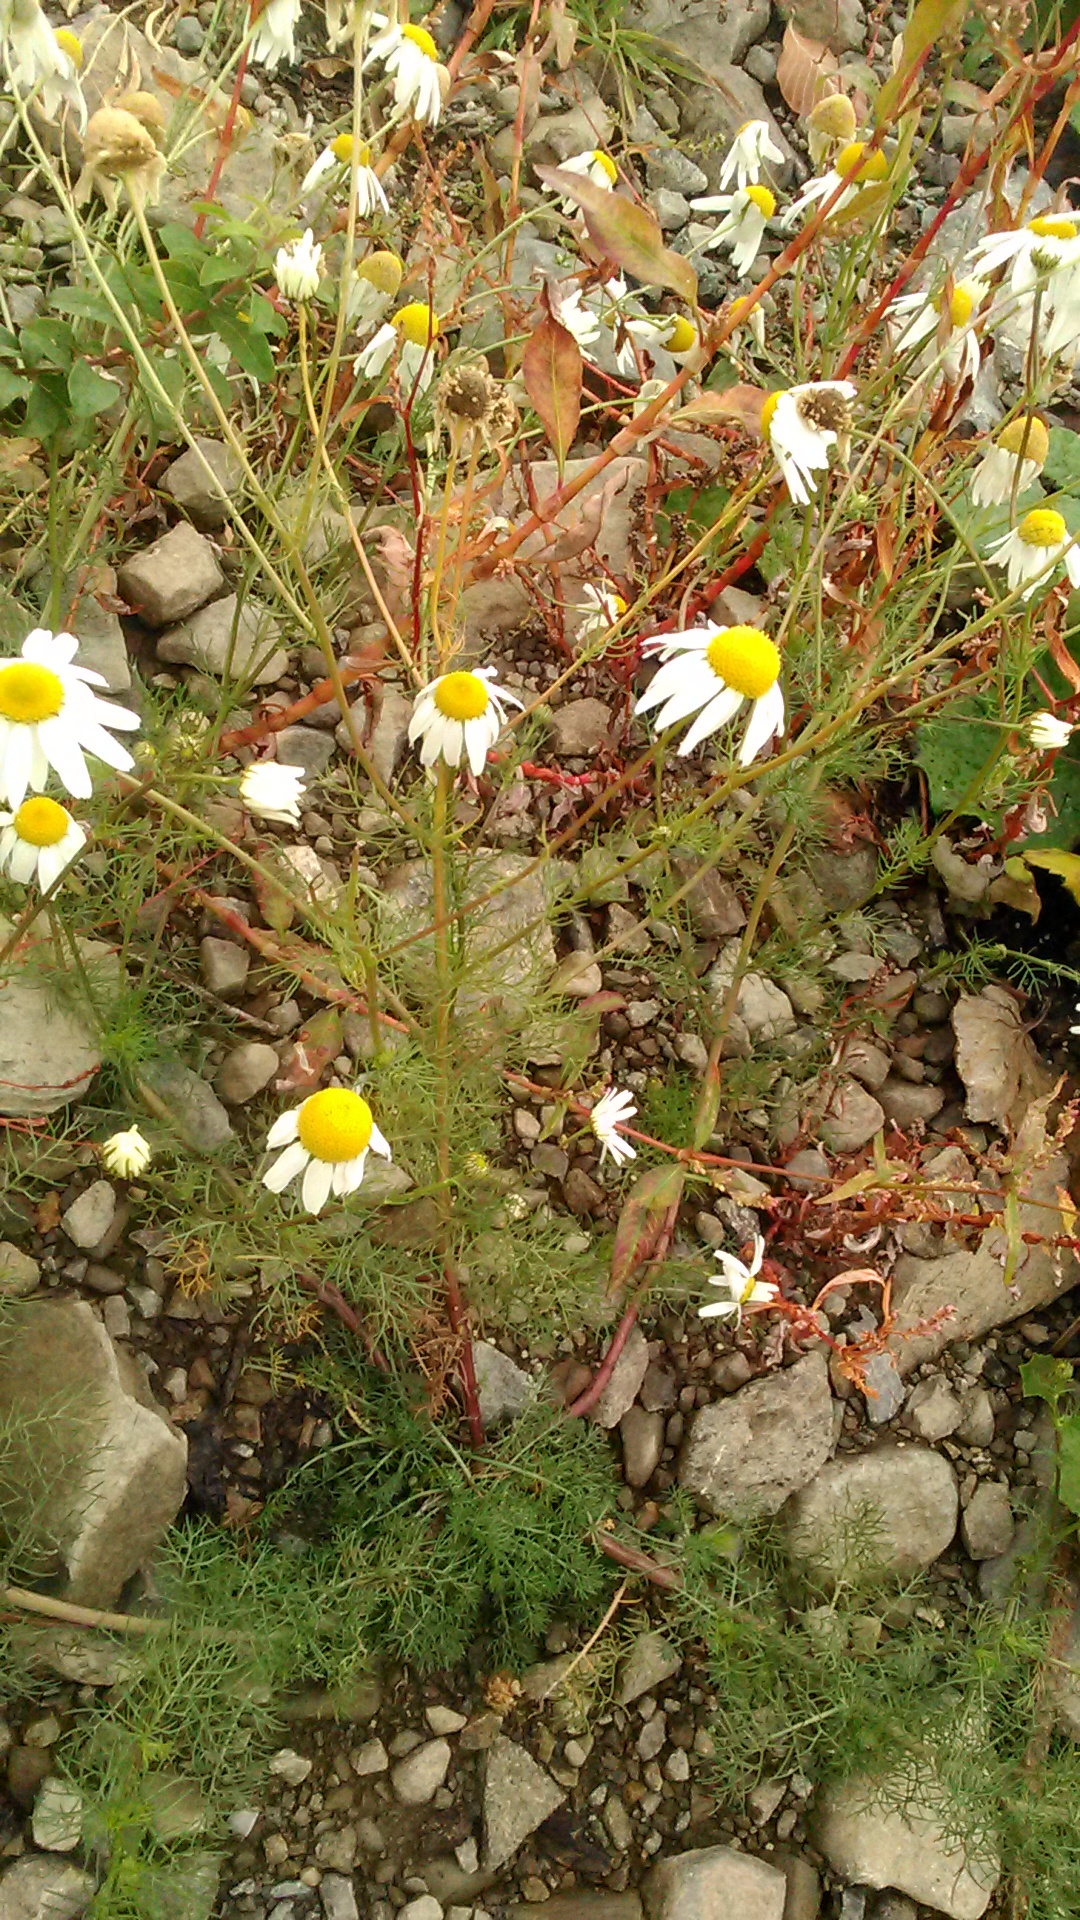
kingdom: Plantae
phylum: Tracheophyta
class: Magnoliopsida
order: Asterales
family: Asteraceae
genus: Tripleurospermum
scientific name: Tripleurospermum inodorum
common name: Scentless mayweed
